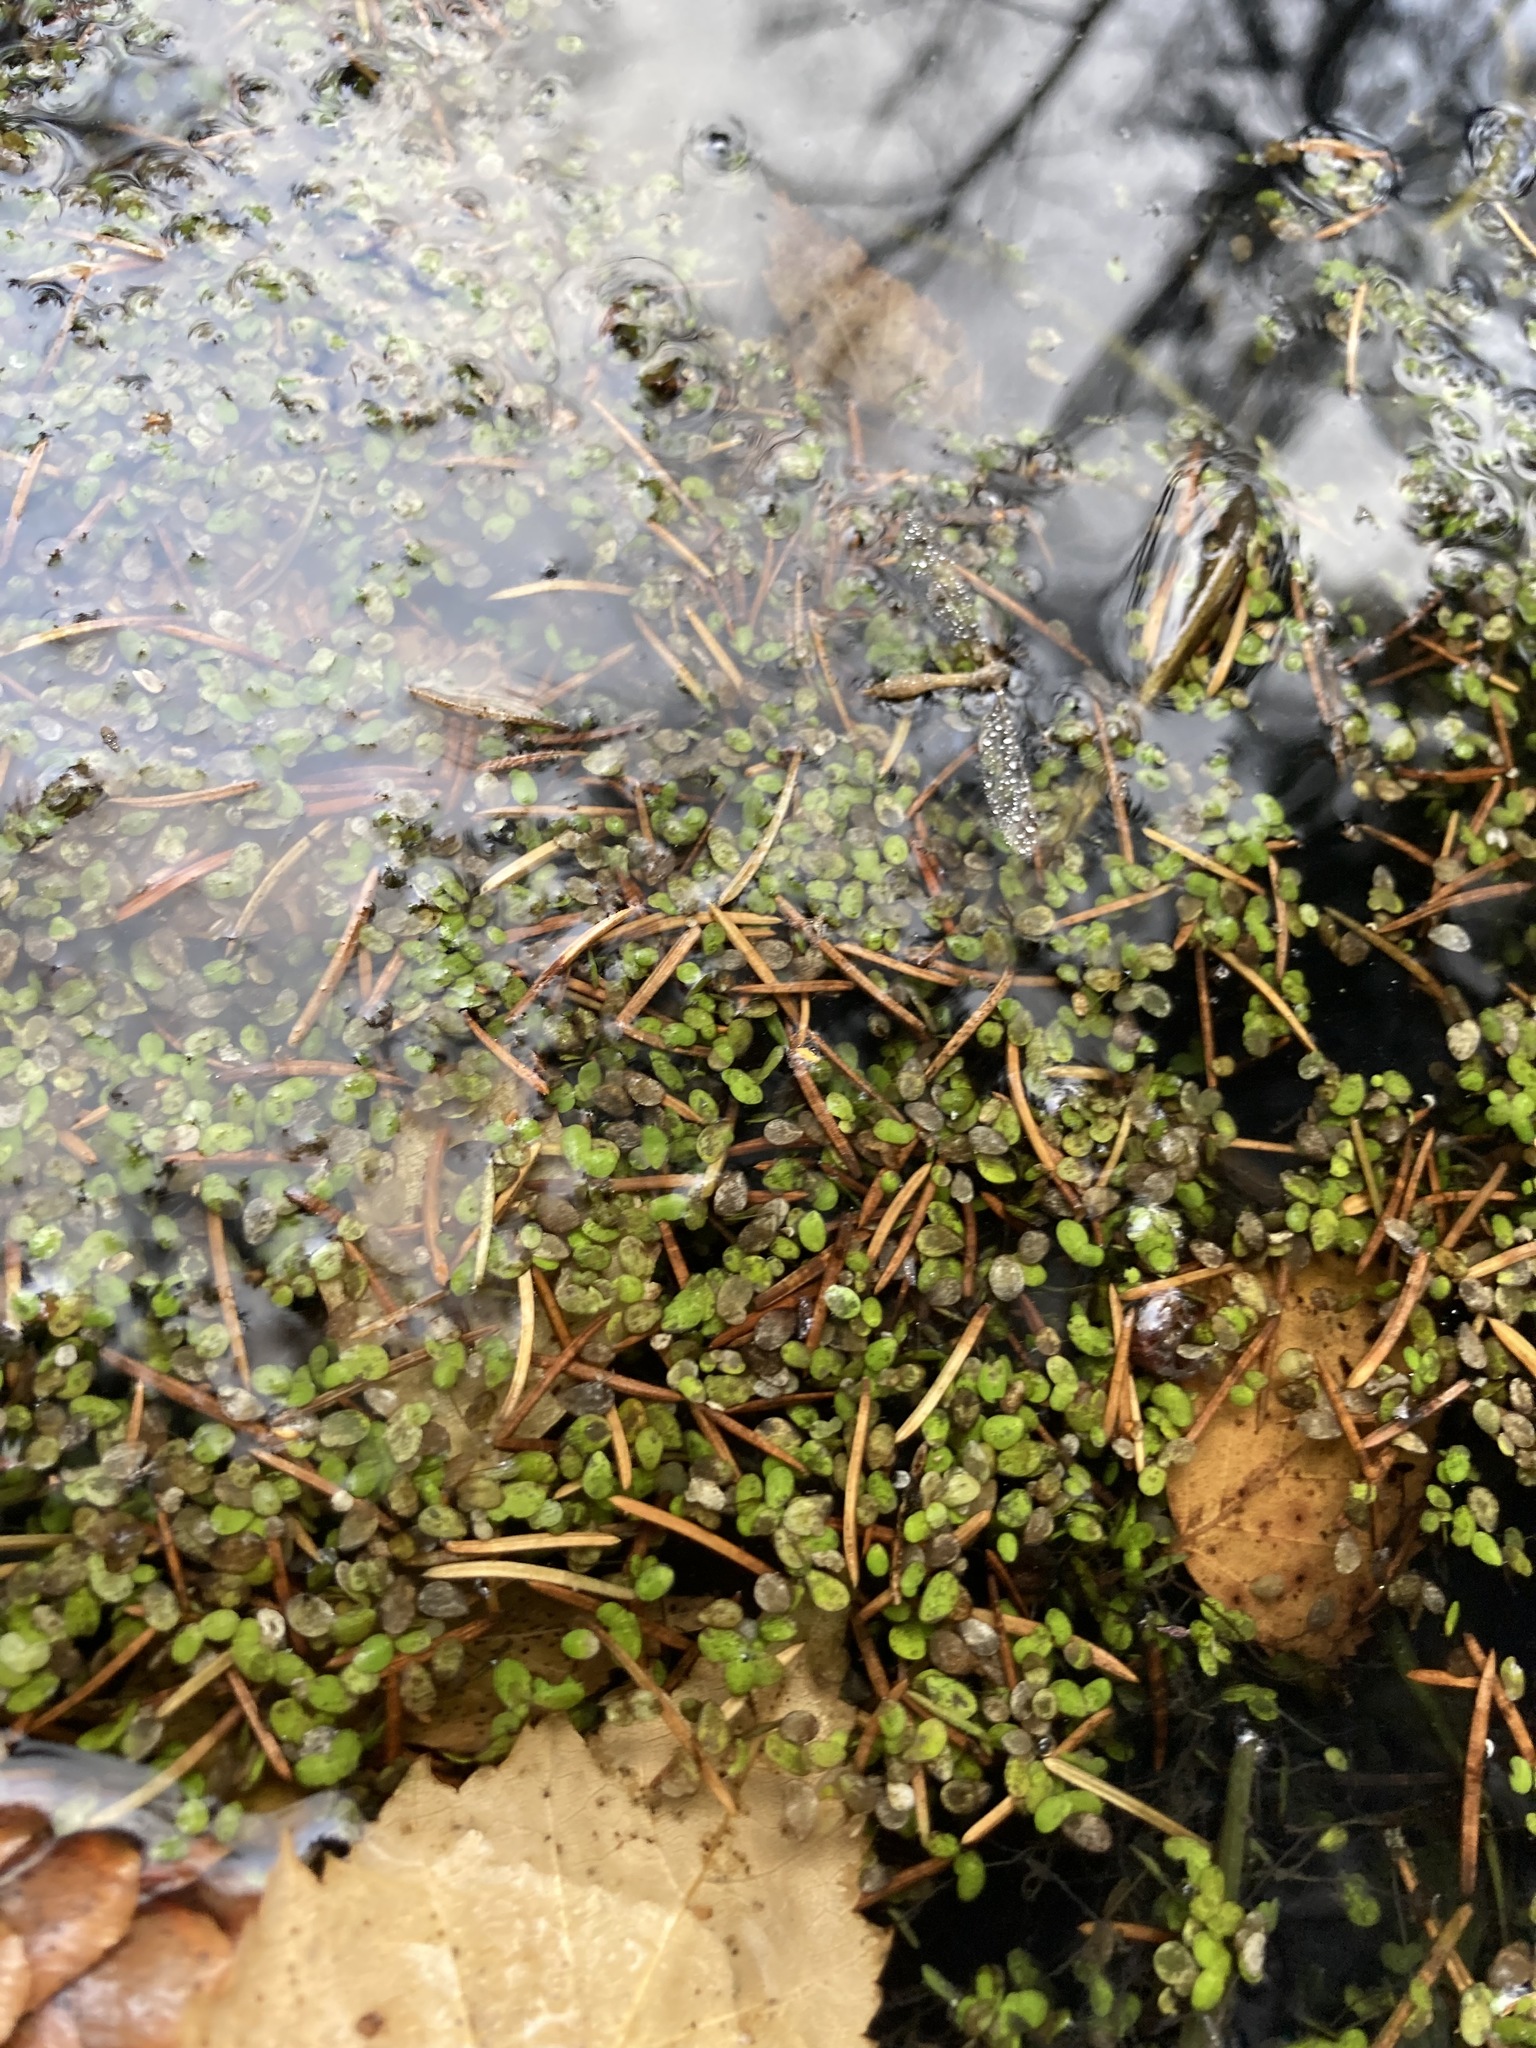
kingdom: Plantae
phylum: Tracheophyta
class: Liliopsida
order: Alismatales
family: Araceae
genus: Lemna
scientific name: Lemna
